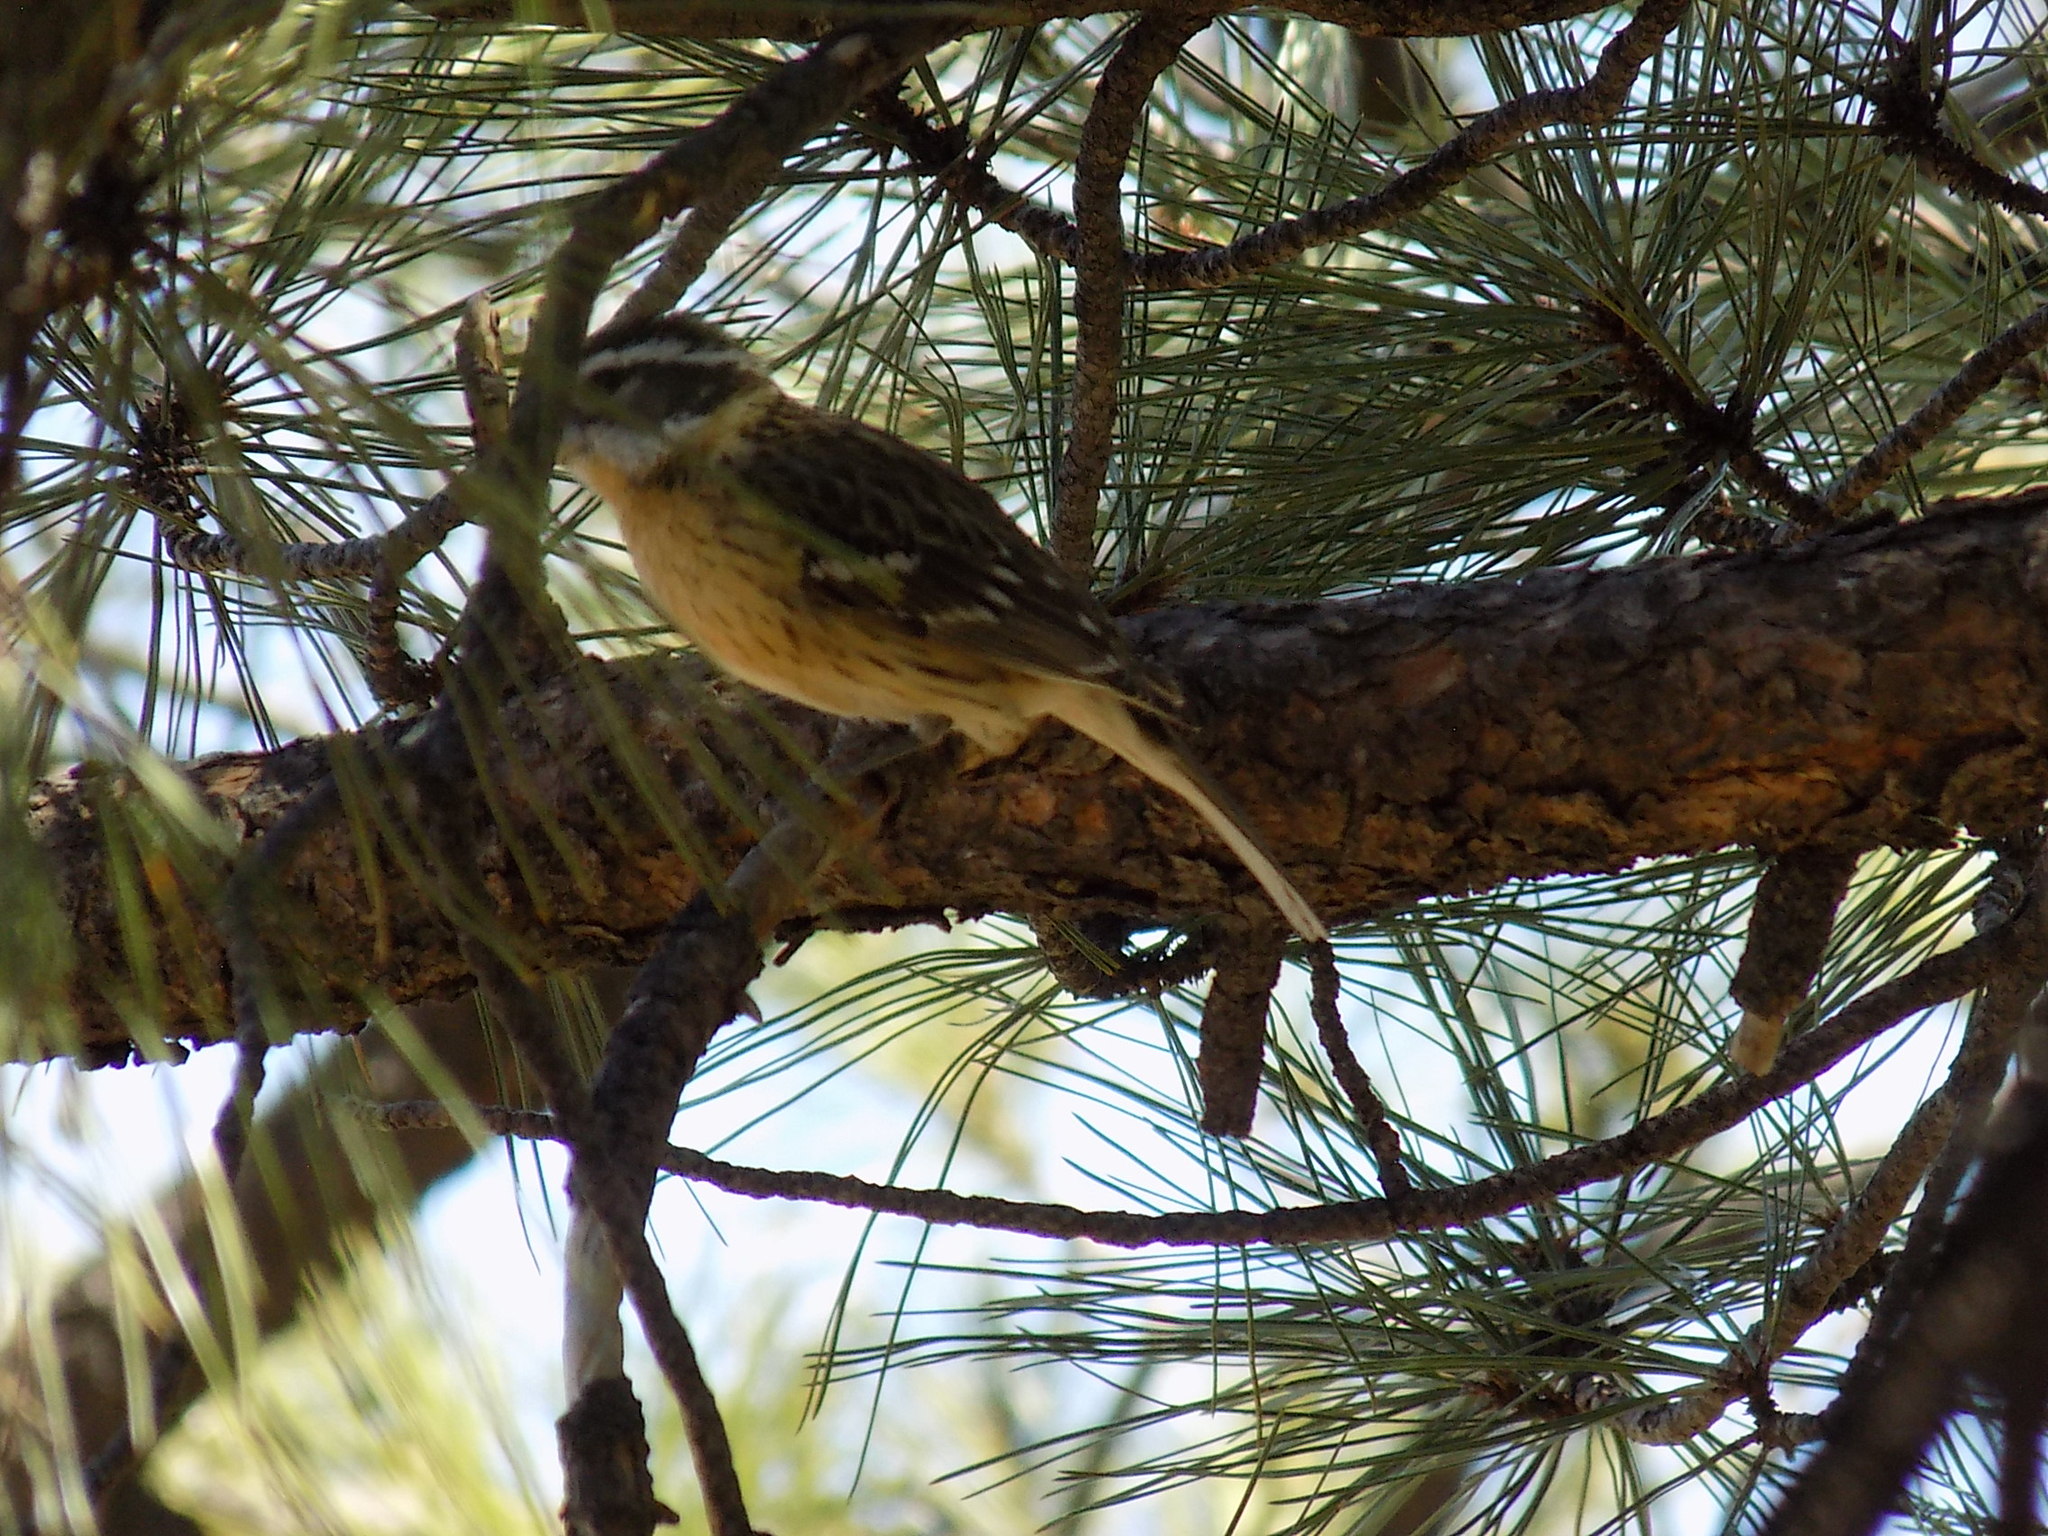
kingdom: Animalia
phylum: Chordata
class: Aves
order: Passeriformes
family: Cardinalidae
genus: Pheucticus
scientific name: Pheucticus melanocephalus
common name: Black-headed grosbeak
